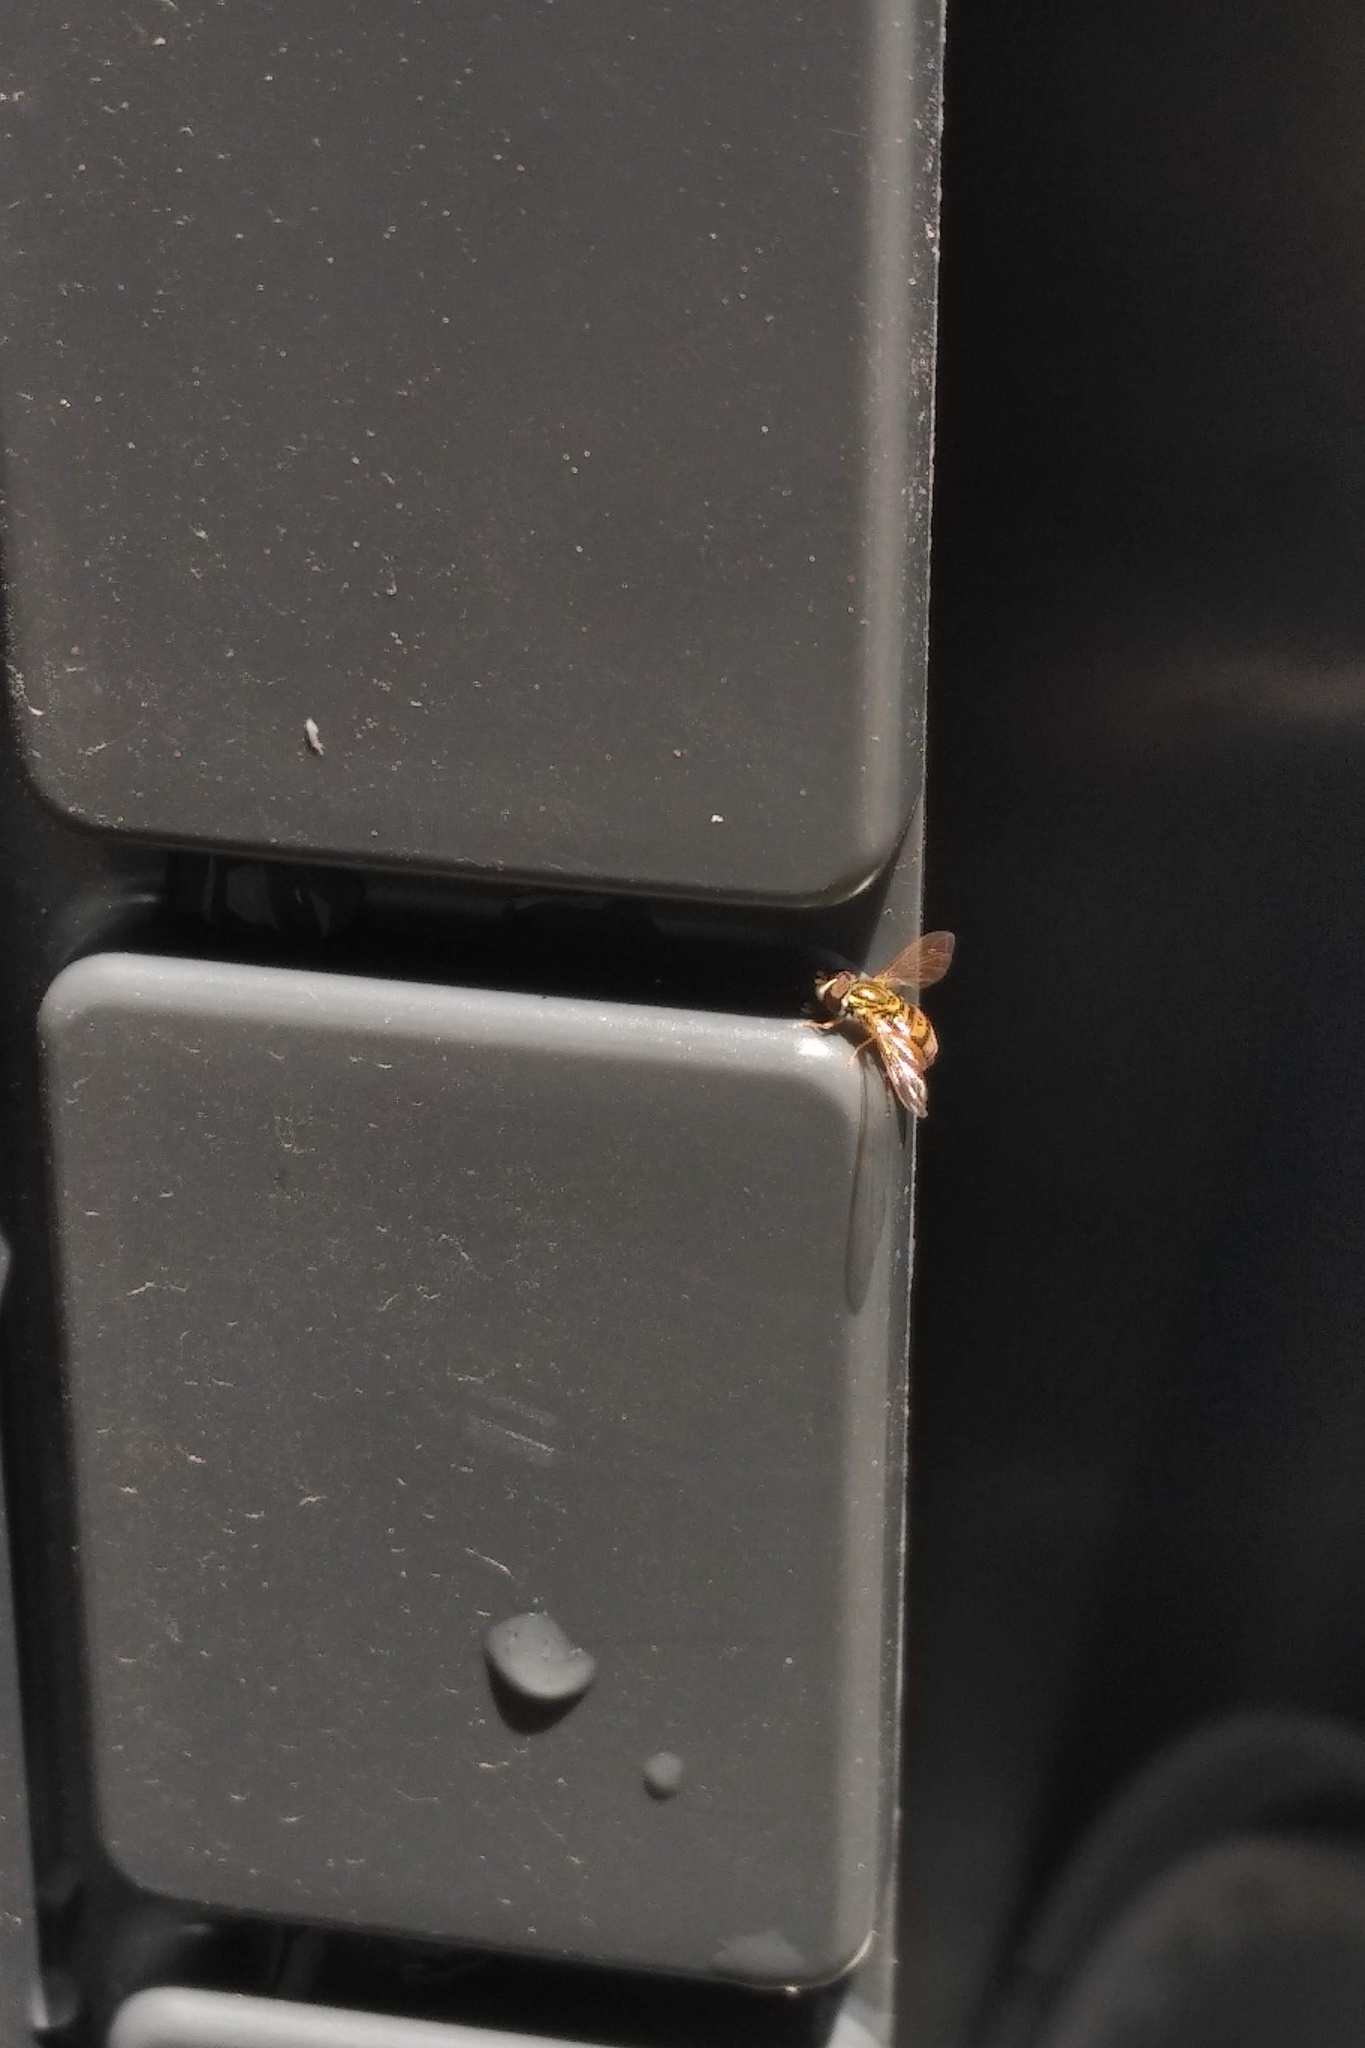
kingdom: Animalia
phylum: Arthropoda
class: Insecta
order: Diptera
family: Syrphidae
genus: Toxomerus
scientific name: Toxomerus marginatus
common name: Syrphid fly
